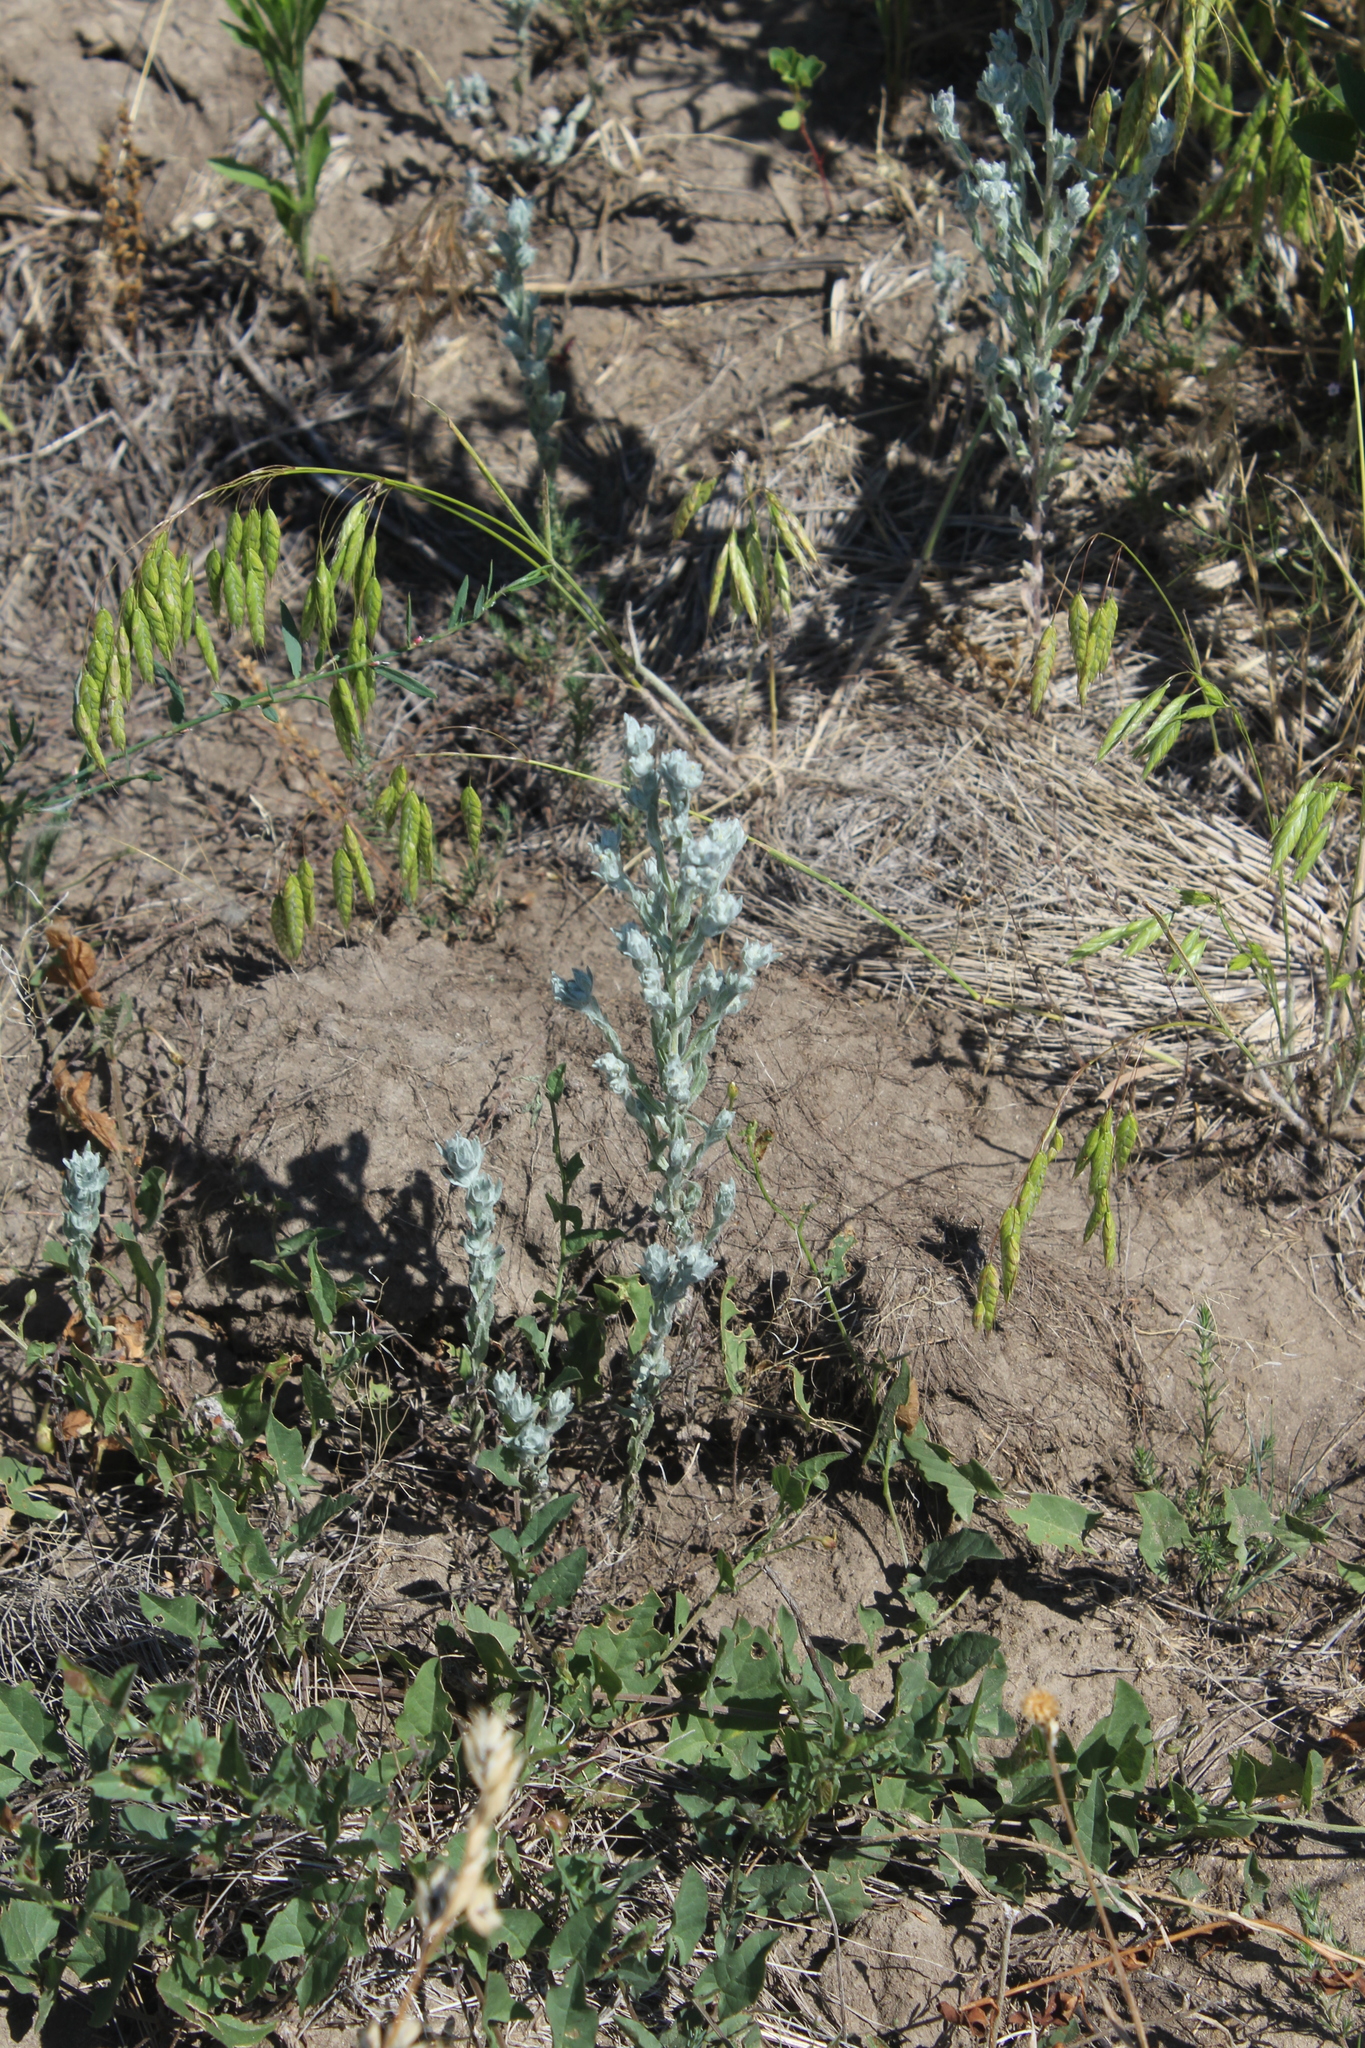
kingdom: Plantae
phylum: Tracheophyta
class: Magnoliopsida
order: Asterales
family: Asteraceae
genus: Filago
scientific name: Filago arvensis
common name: Field cudweed
